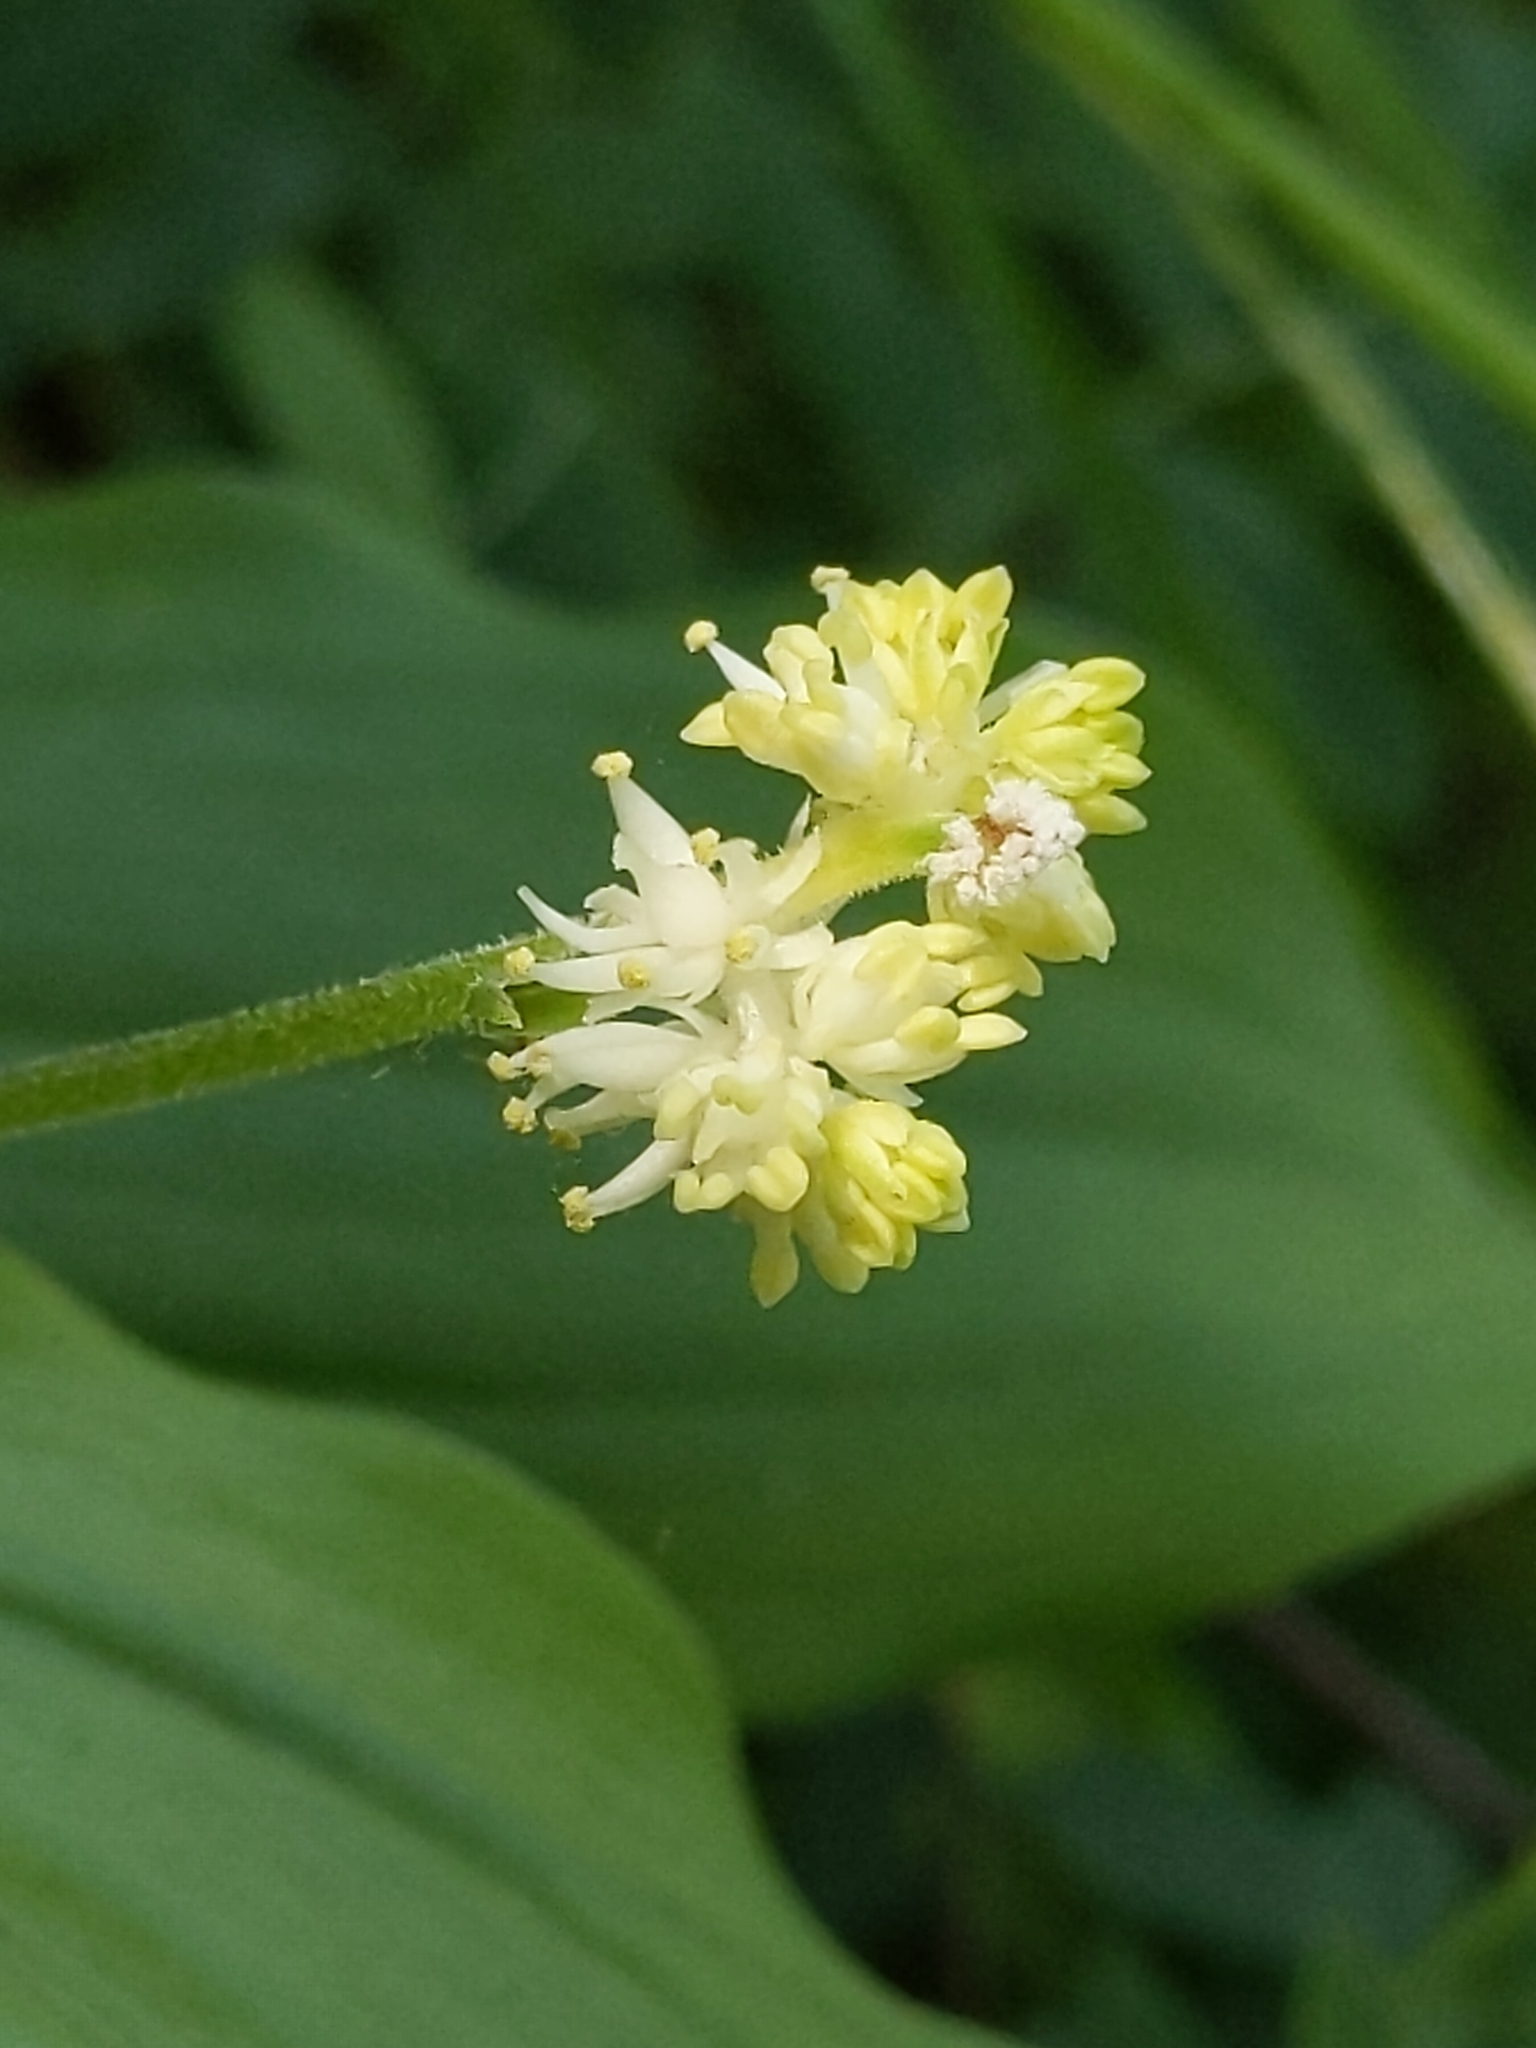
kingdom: Plantae
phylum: Tracheophyta
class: Liliopsida
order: Asparagales
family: Asparagaceae
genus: Maianthemum
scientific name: Maianthemum racemosum
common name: False spikenard
